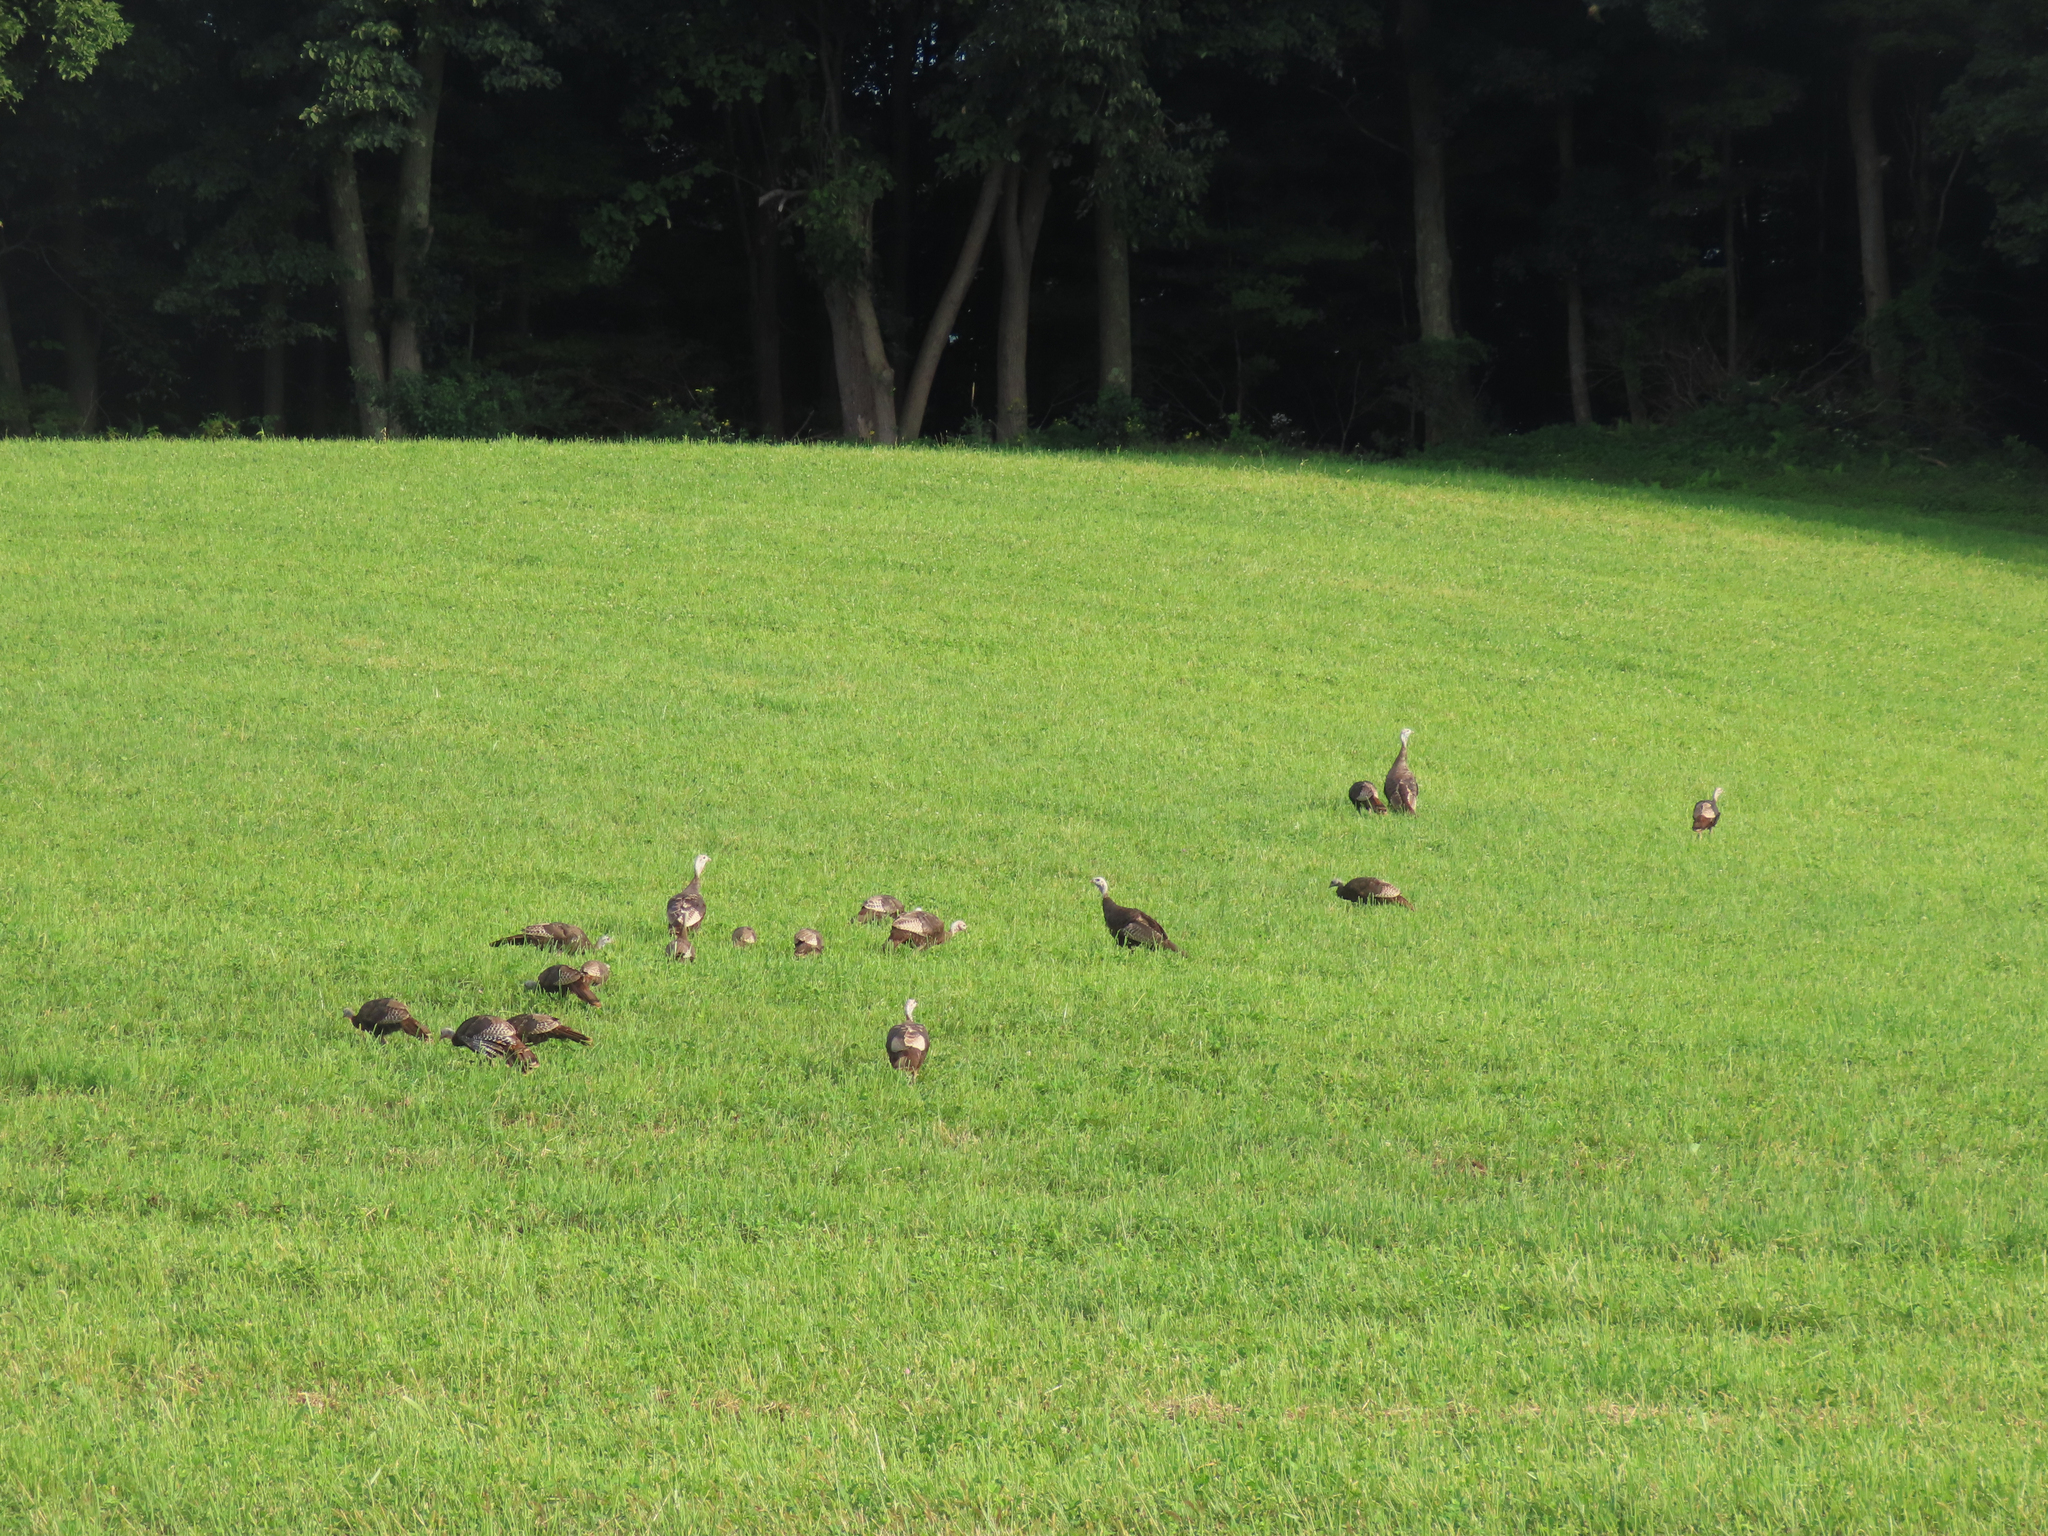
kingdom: Animalia
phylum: Chordata
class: Aves
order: Galliformes
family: Phasianidae
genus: Meleagris
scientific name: Meleagris gallopavo
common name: Wild turkey
